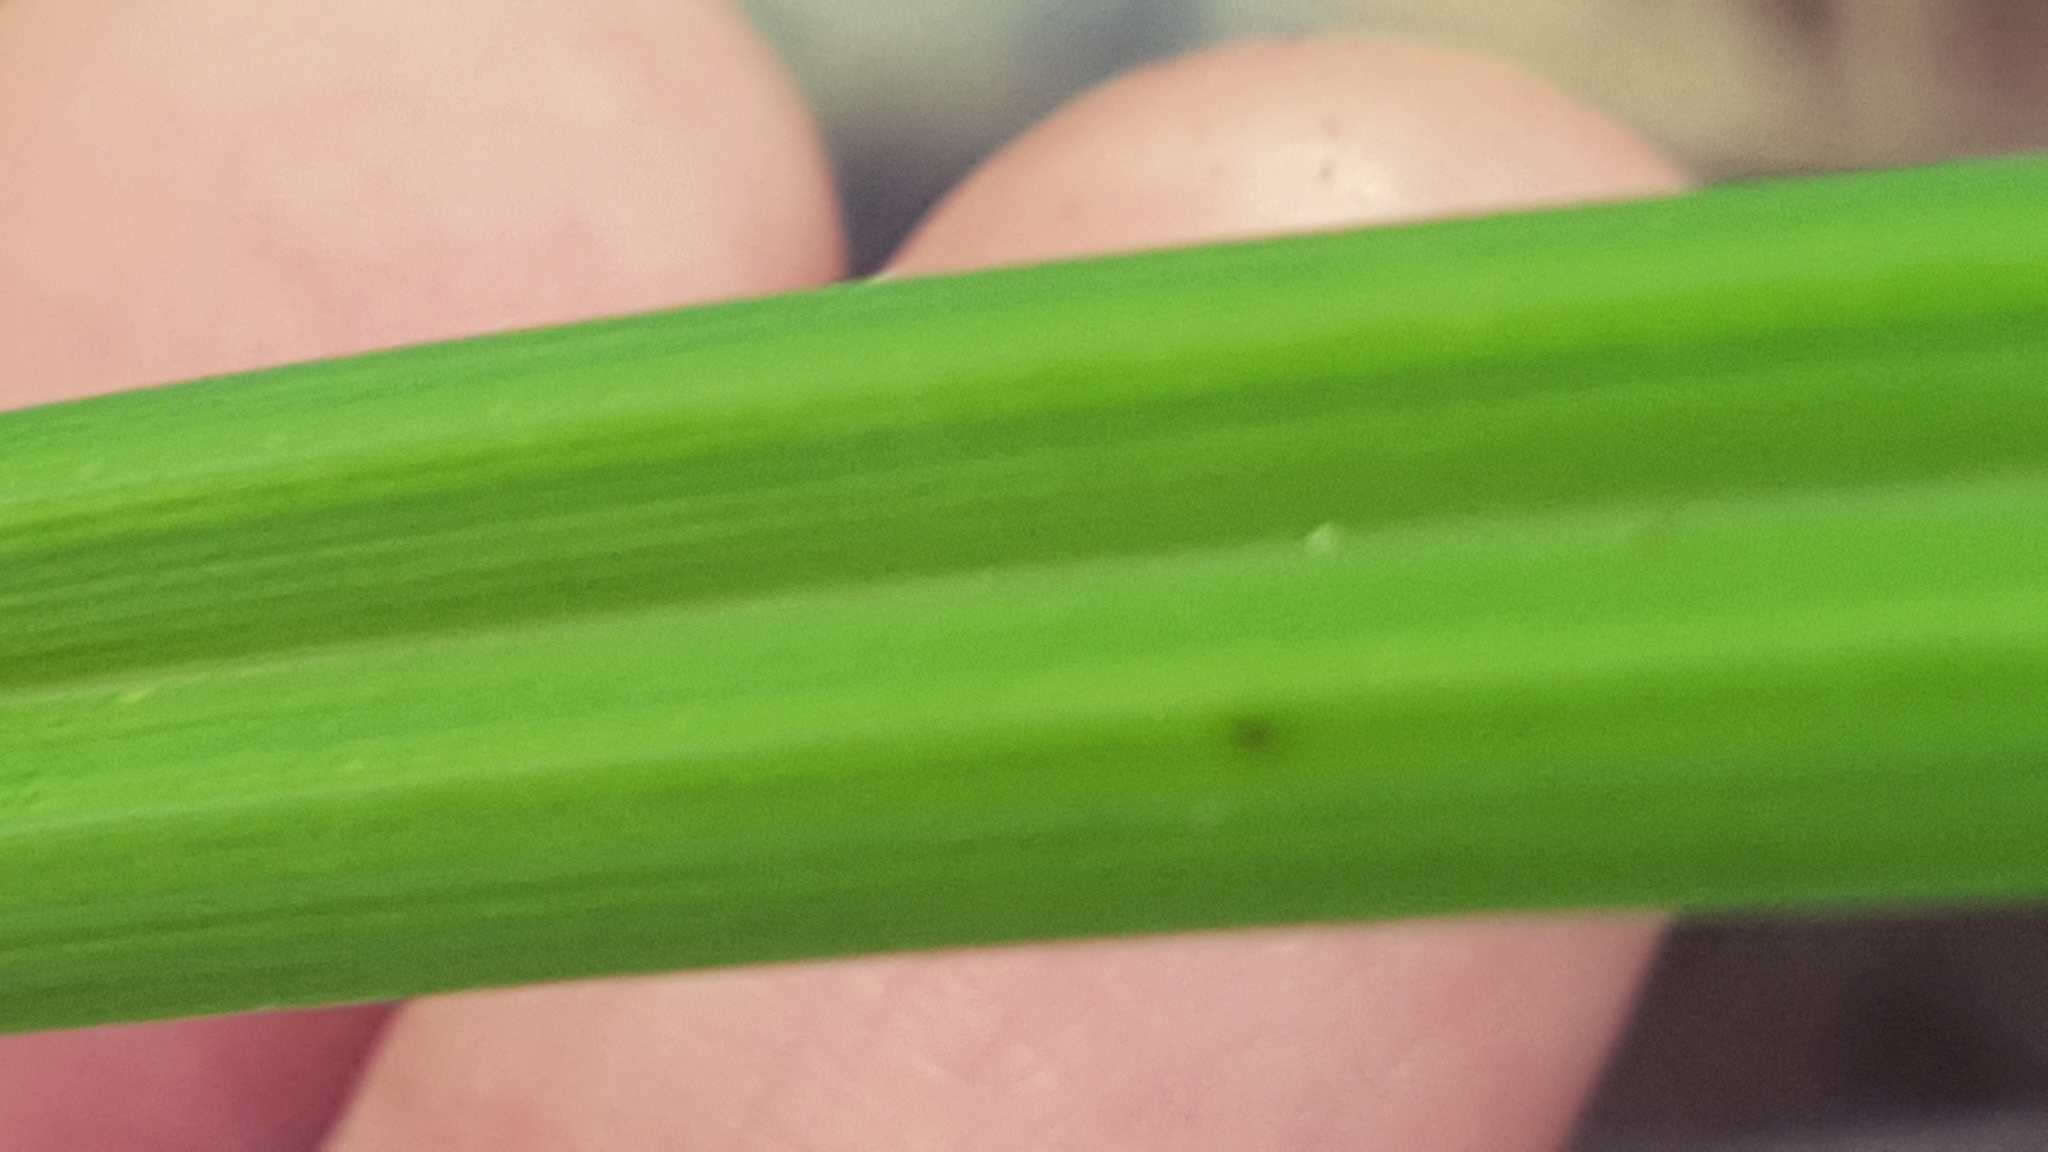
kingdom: Plantae
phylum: Tracheophyta
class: Liliopsida
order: Poales
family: Cyperaceae
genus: Carex
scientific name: Carex crinita
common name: Fringed sedge
